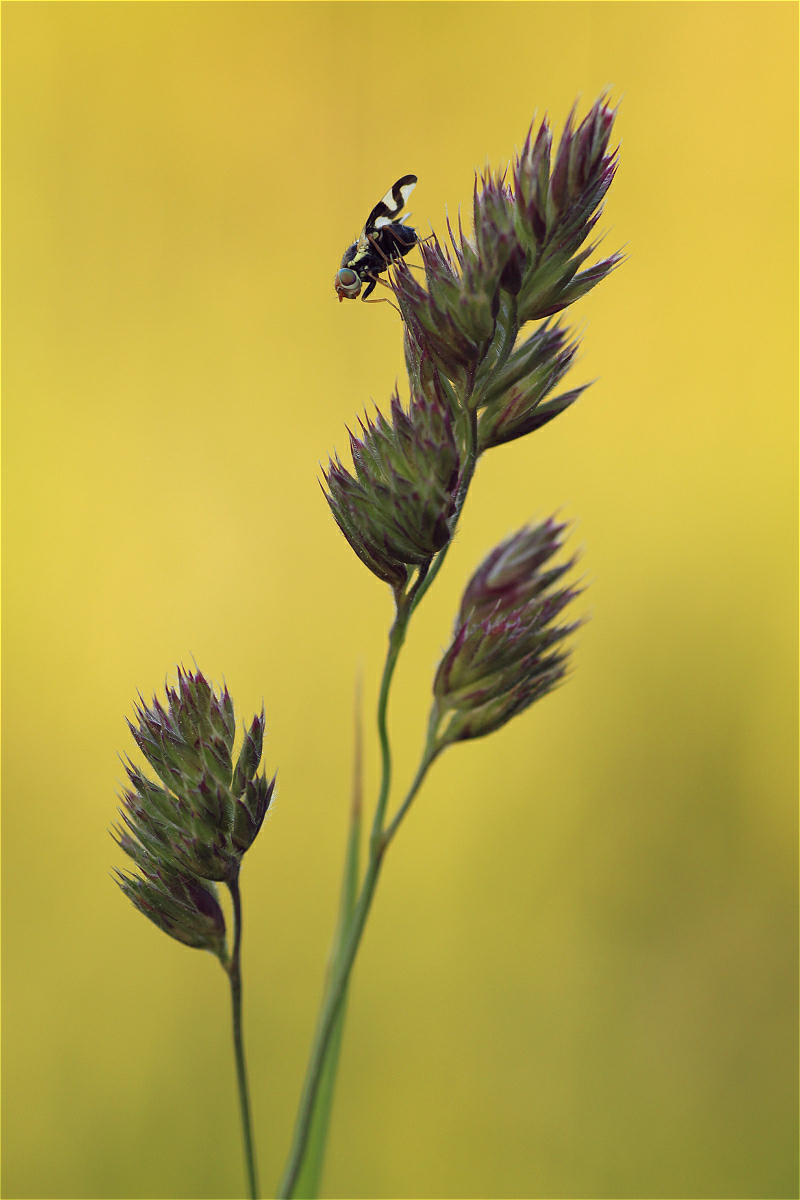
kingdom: Plantae
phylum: Tracheophyta
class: Liliopsida
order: Poales
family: Poaceae
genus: Dactylis
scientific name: Dactylis glomerata
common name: Orchardgrass
